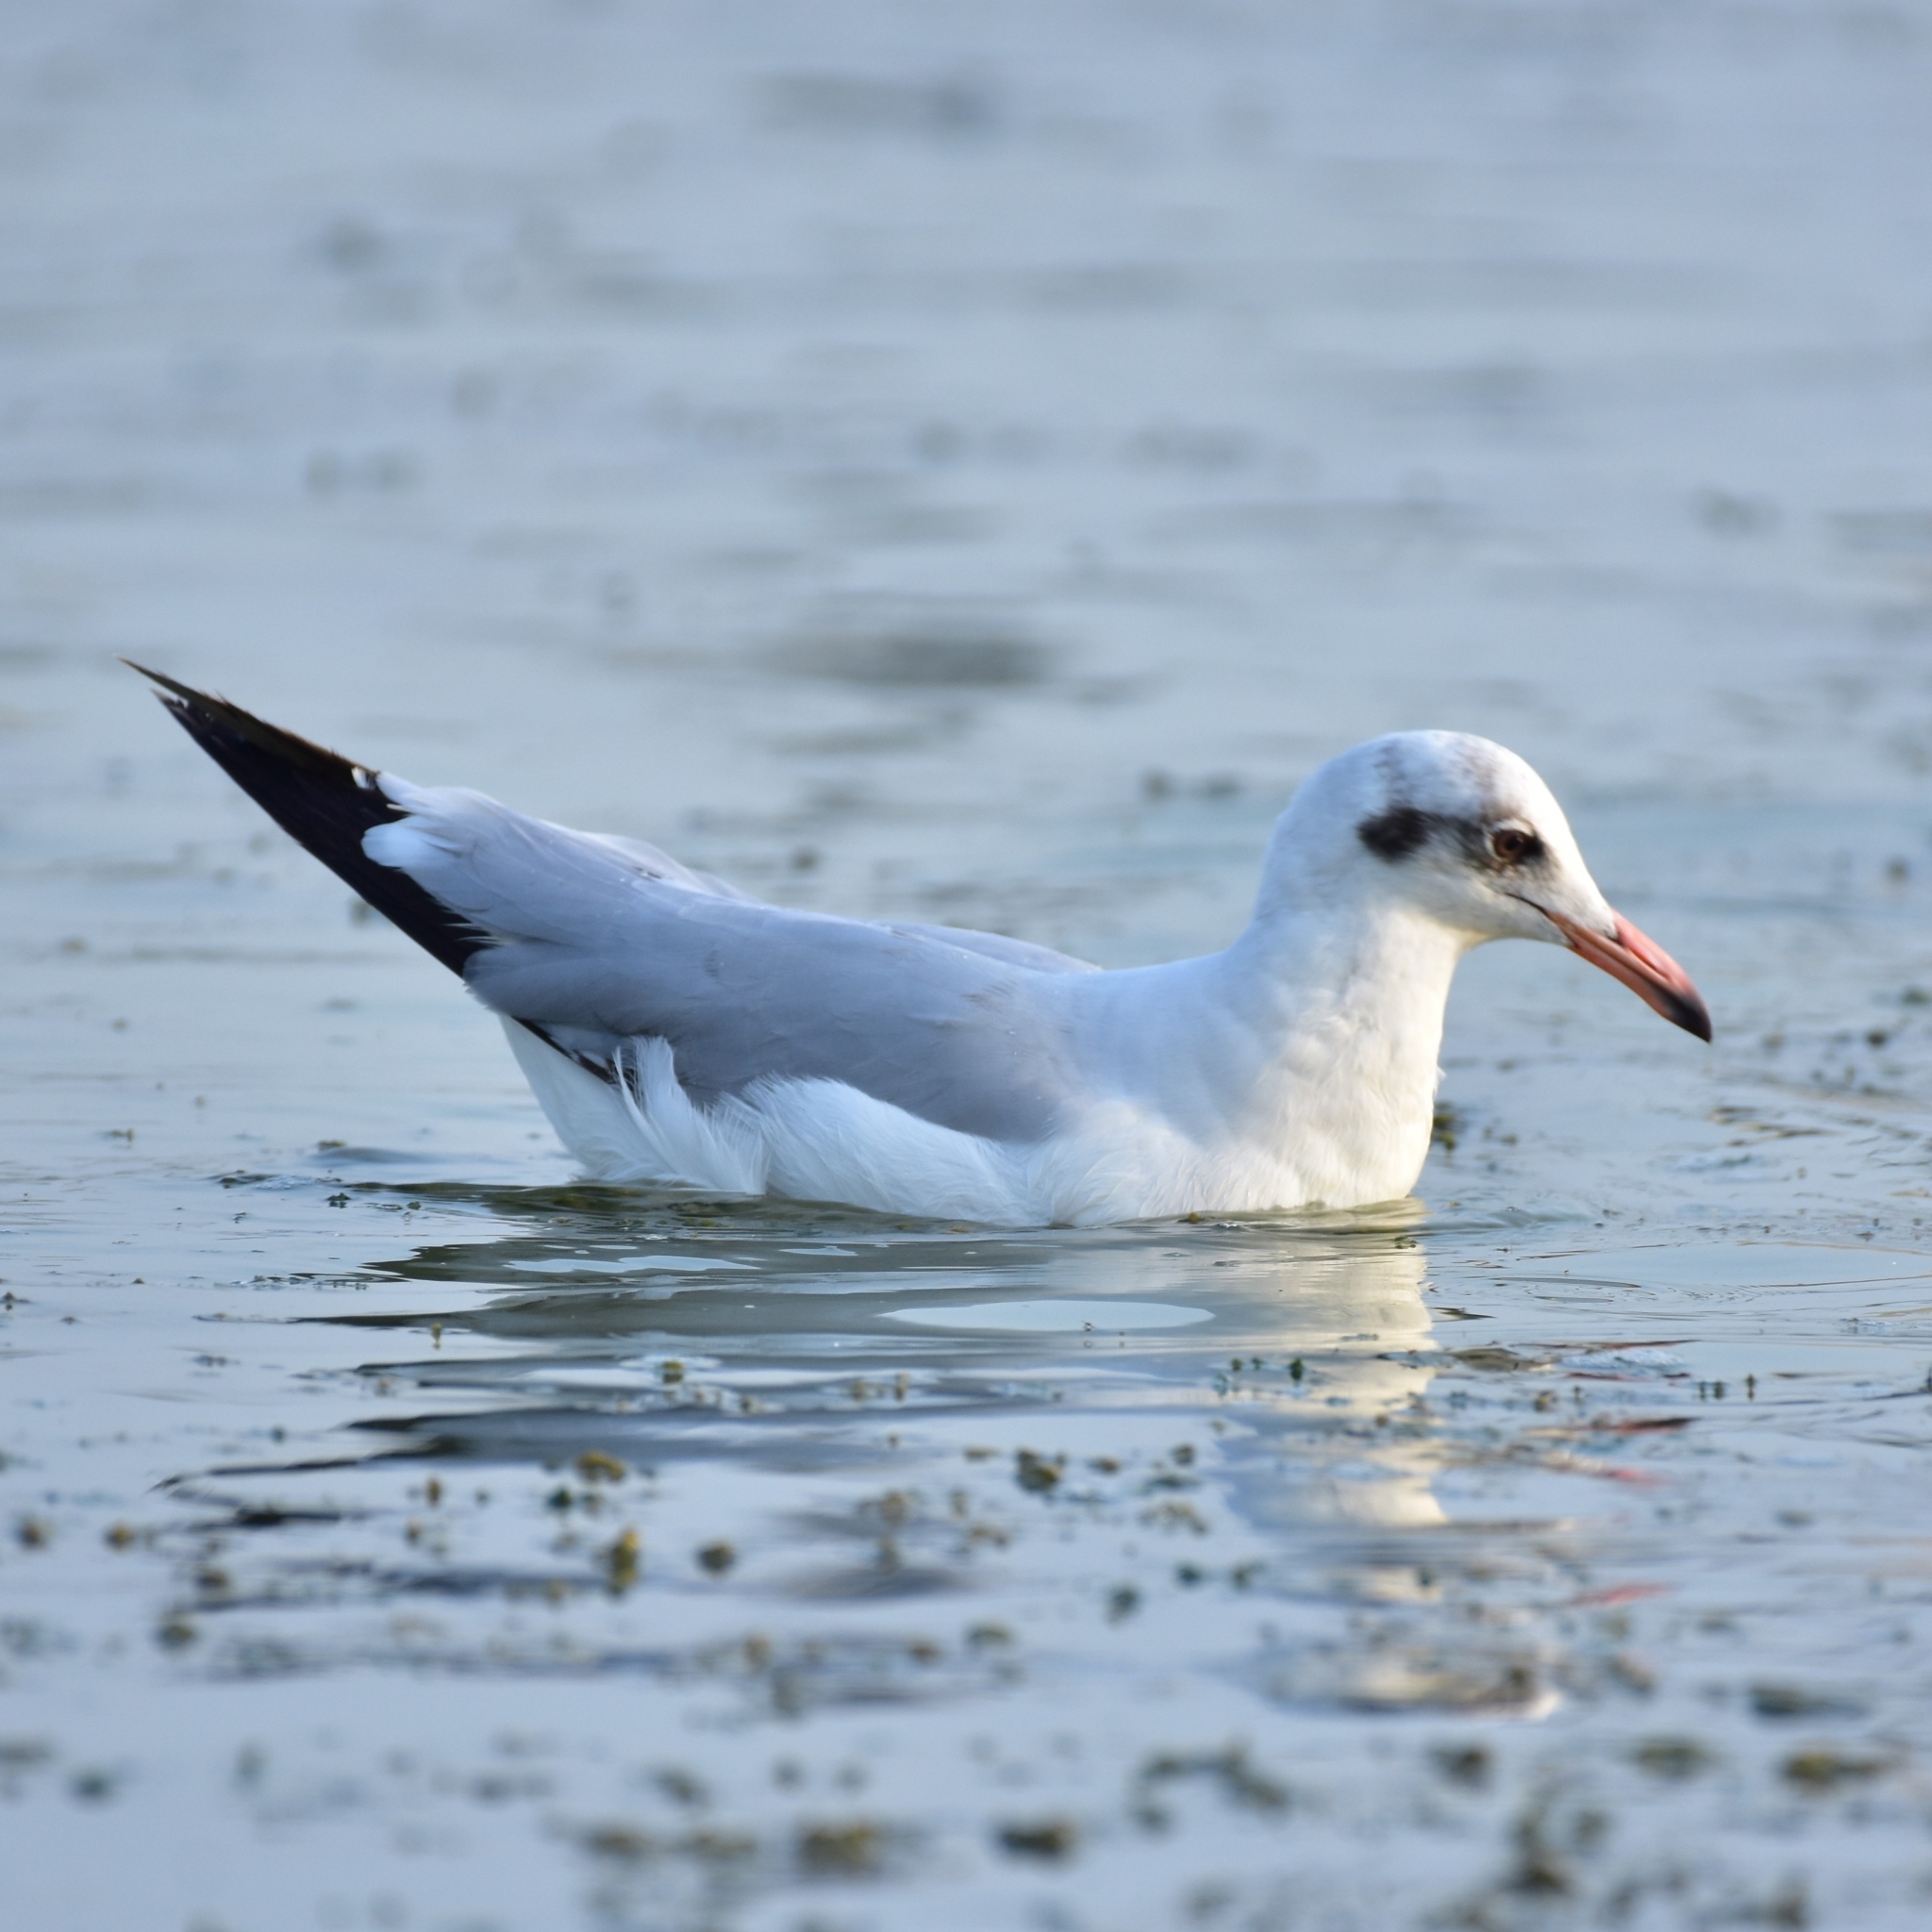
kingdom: Animalia
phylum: Chordata
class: Aves
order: Charadriiformes
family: Laridae
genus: Chroicocephalus
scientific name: Chroicocephalus brunnicephalus
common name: Brown-headed gull
